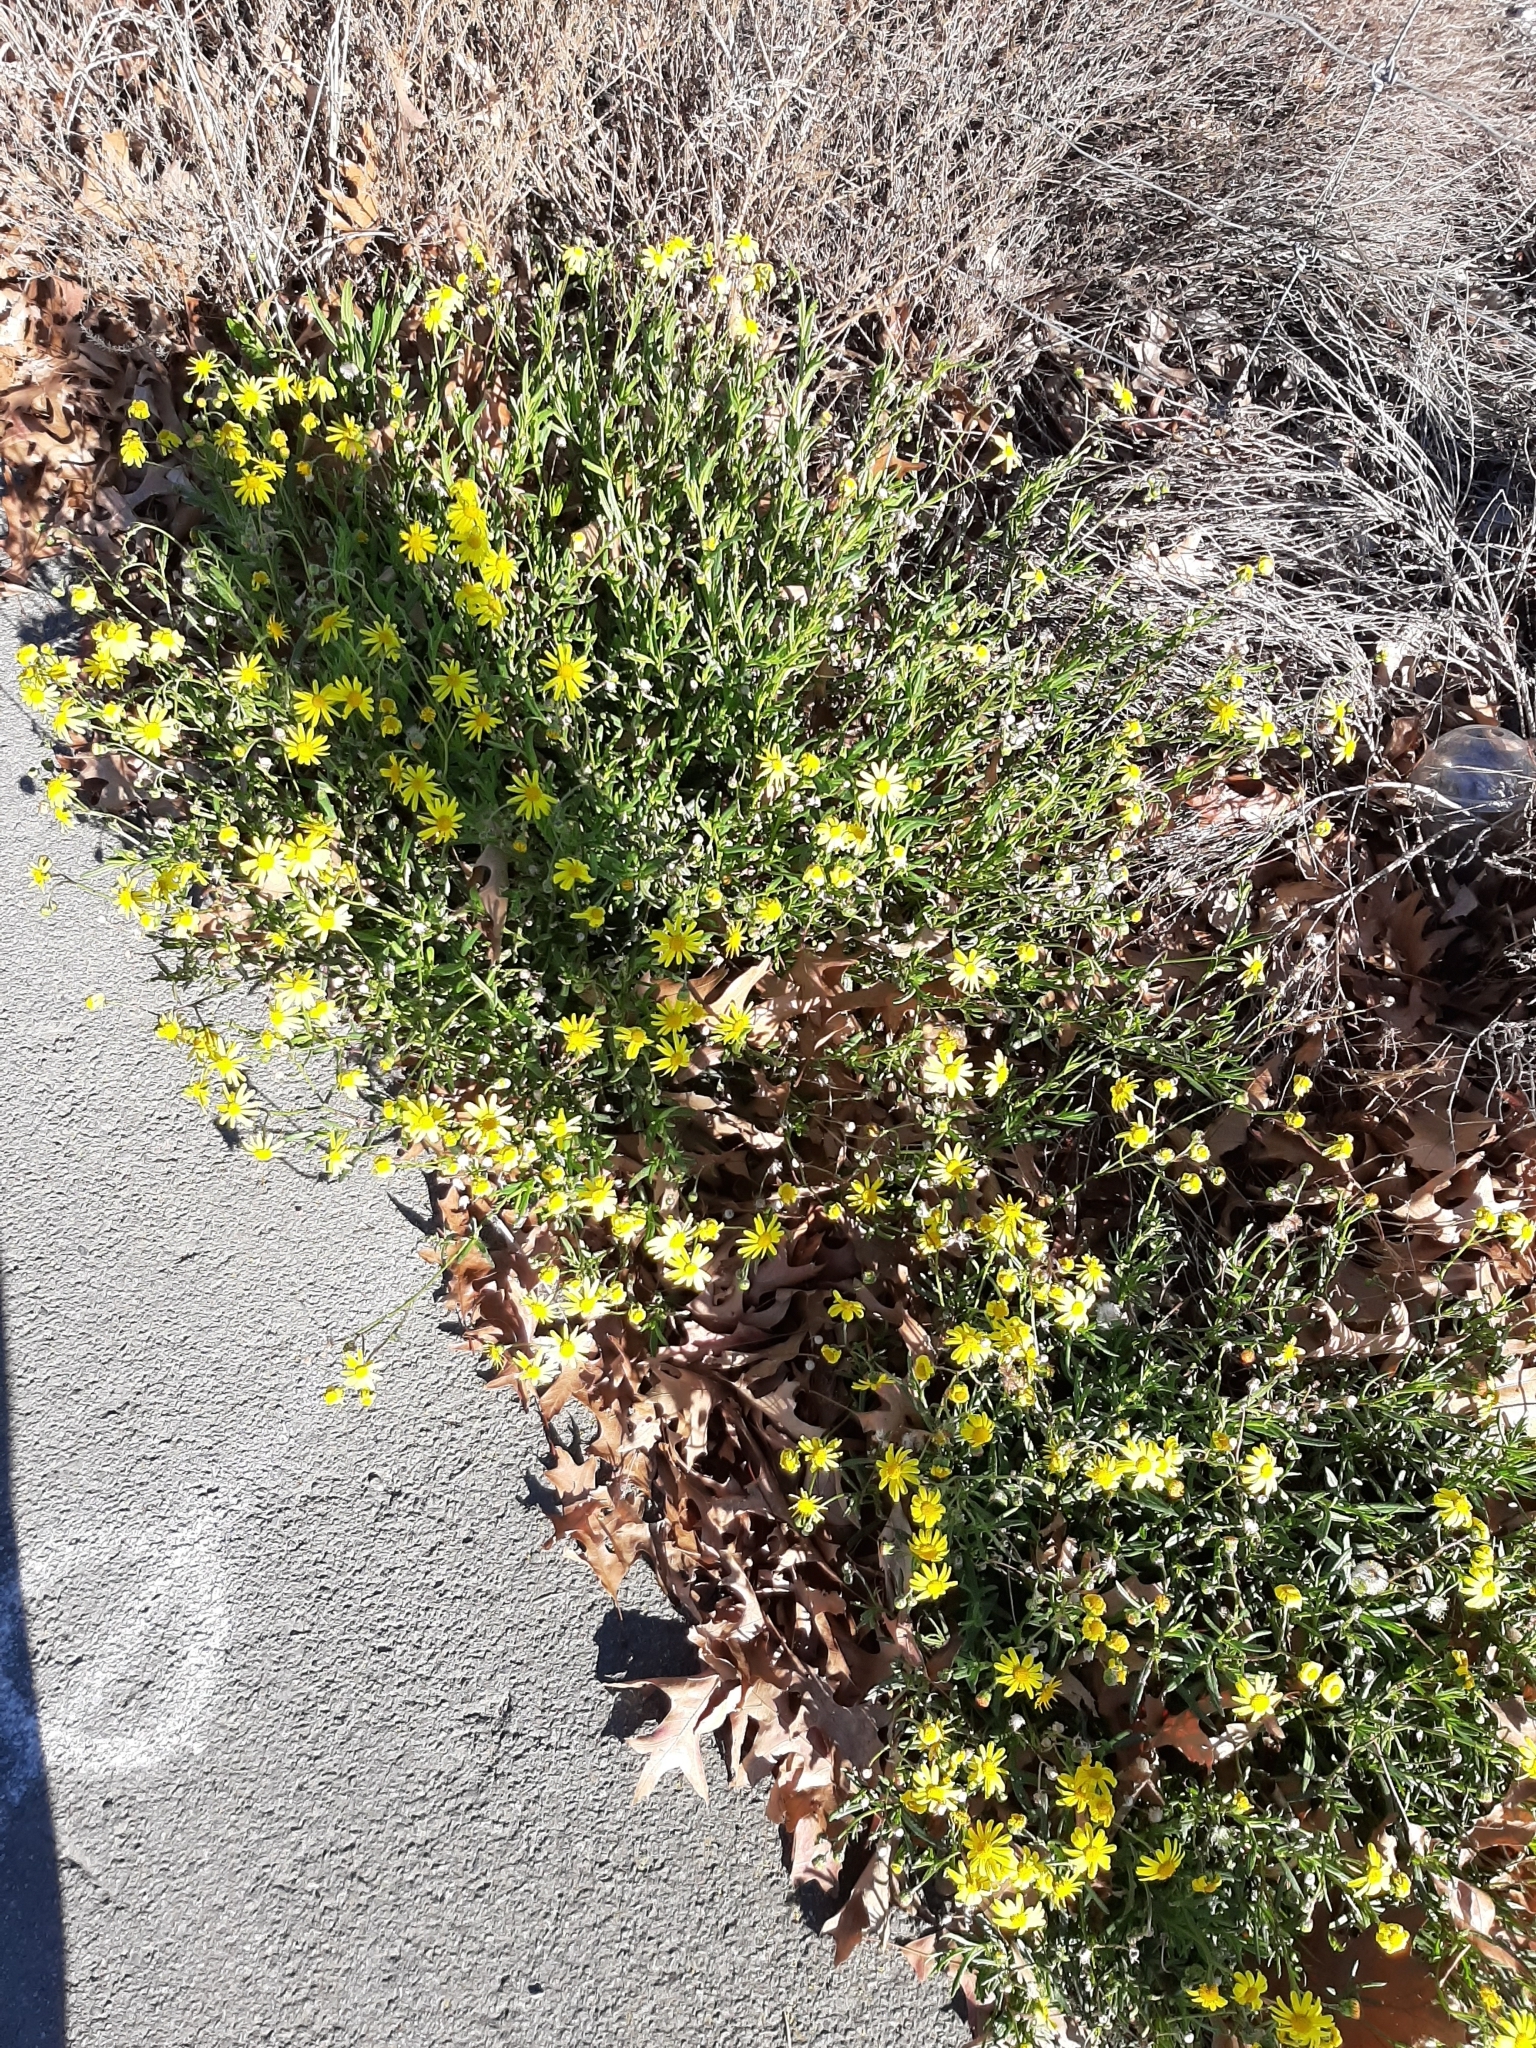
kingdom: Plantae
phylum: Tracheophyta
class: Magnoliopsida
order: Asterales
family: Asteraceae
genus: Senecio
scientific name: Senecio skirrhodon
